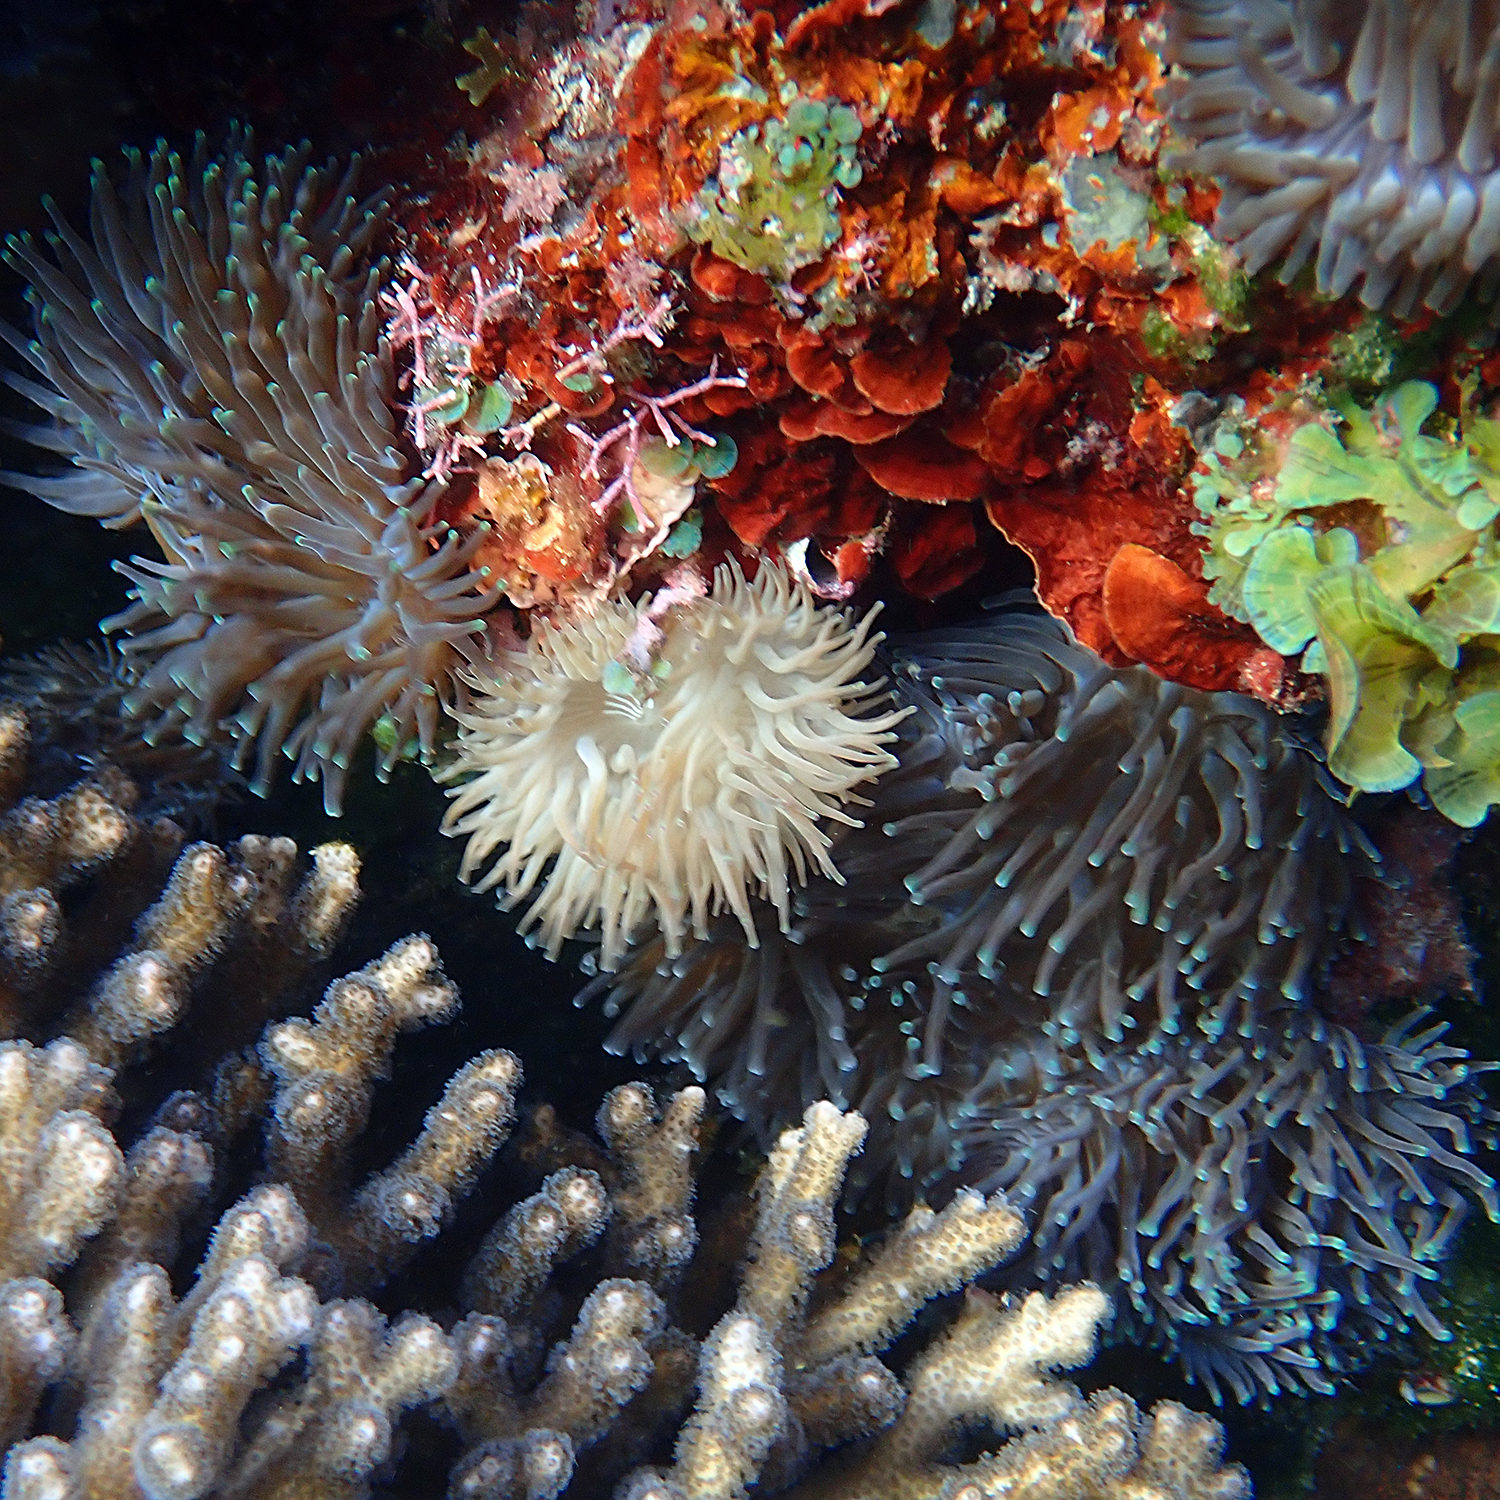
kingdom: Animalia
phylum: Cnidaria
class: Anthozoa
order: Actiniaria
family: Actiniidae
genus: Entacmaea
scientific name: Entacmaea quadricolor
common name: Bulb tentacle sea anemone
